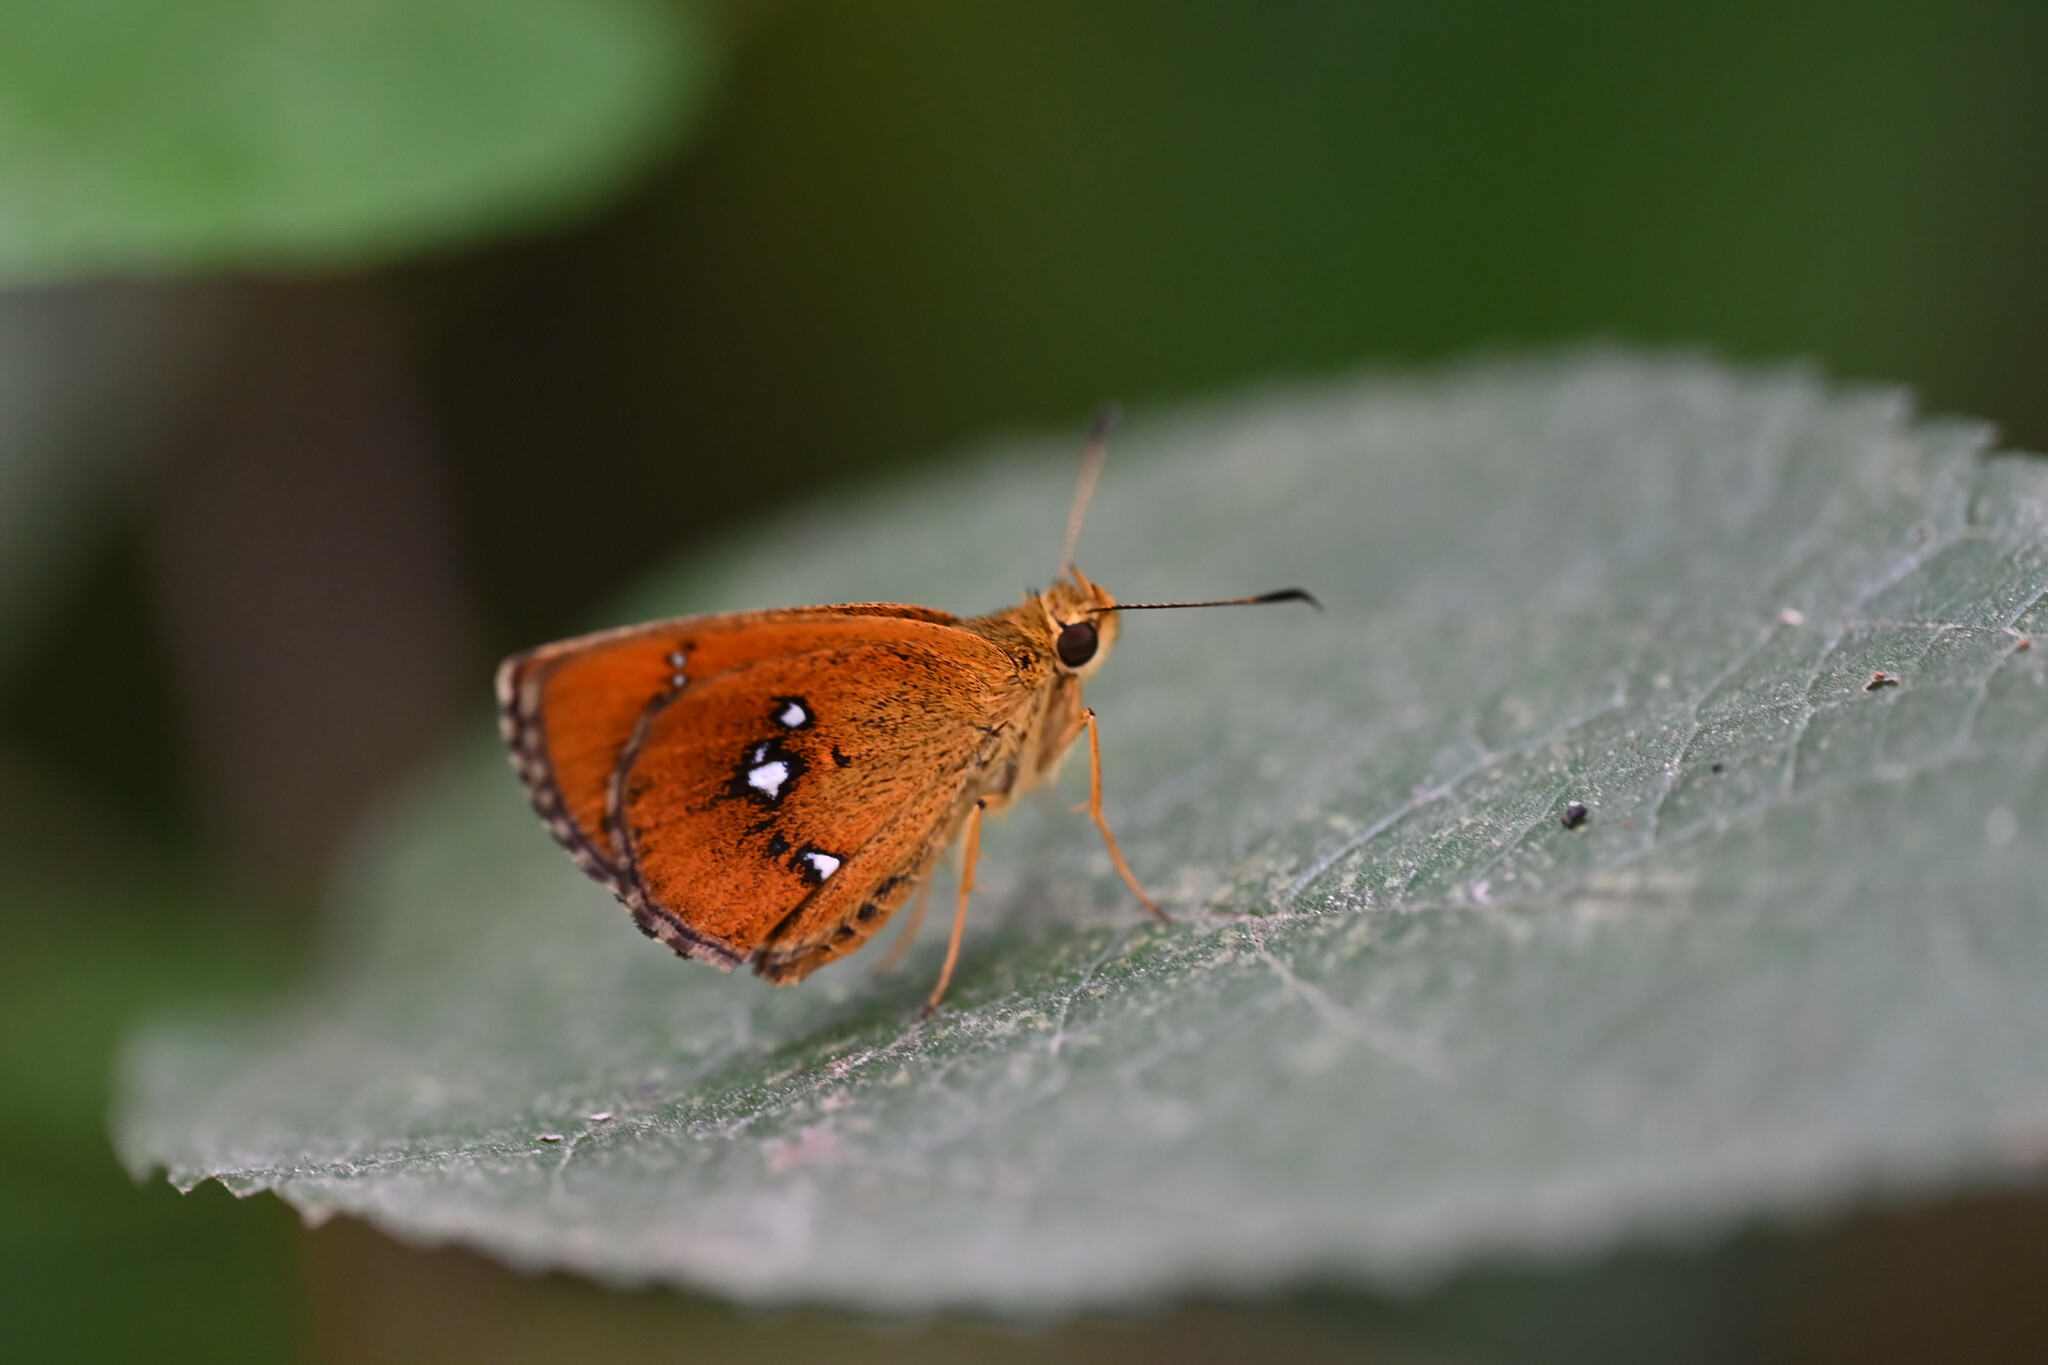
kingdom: Animalia
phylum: Arthropoda
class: Insecta
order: Lepidoptera
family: Hesperiidae
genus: Iambrix
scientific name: Iambrix salsala
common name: Chestnut bob
